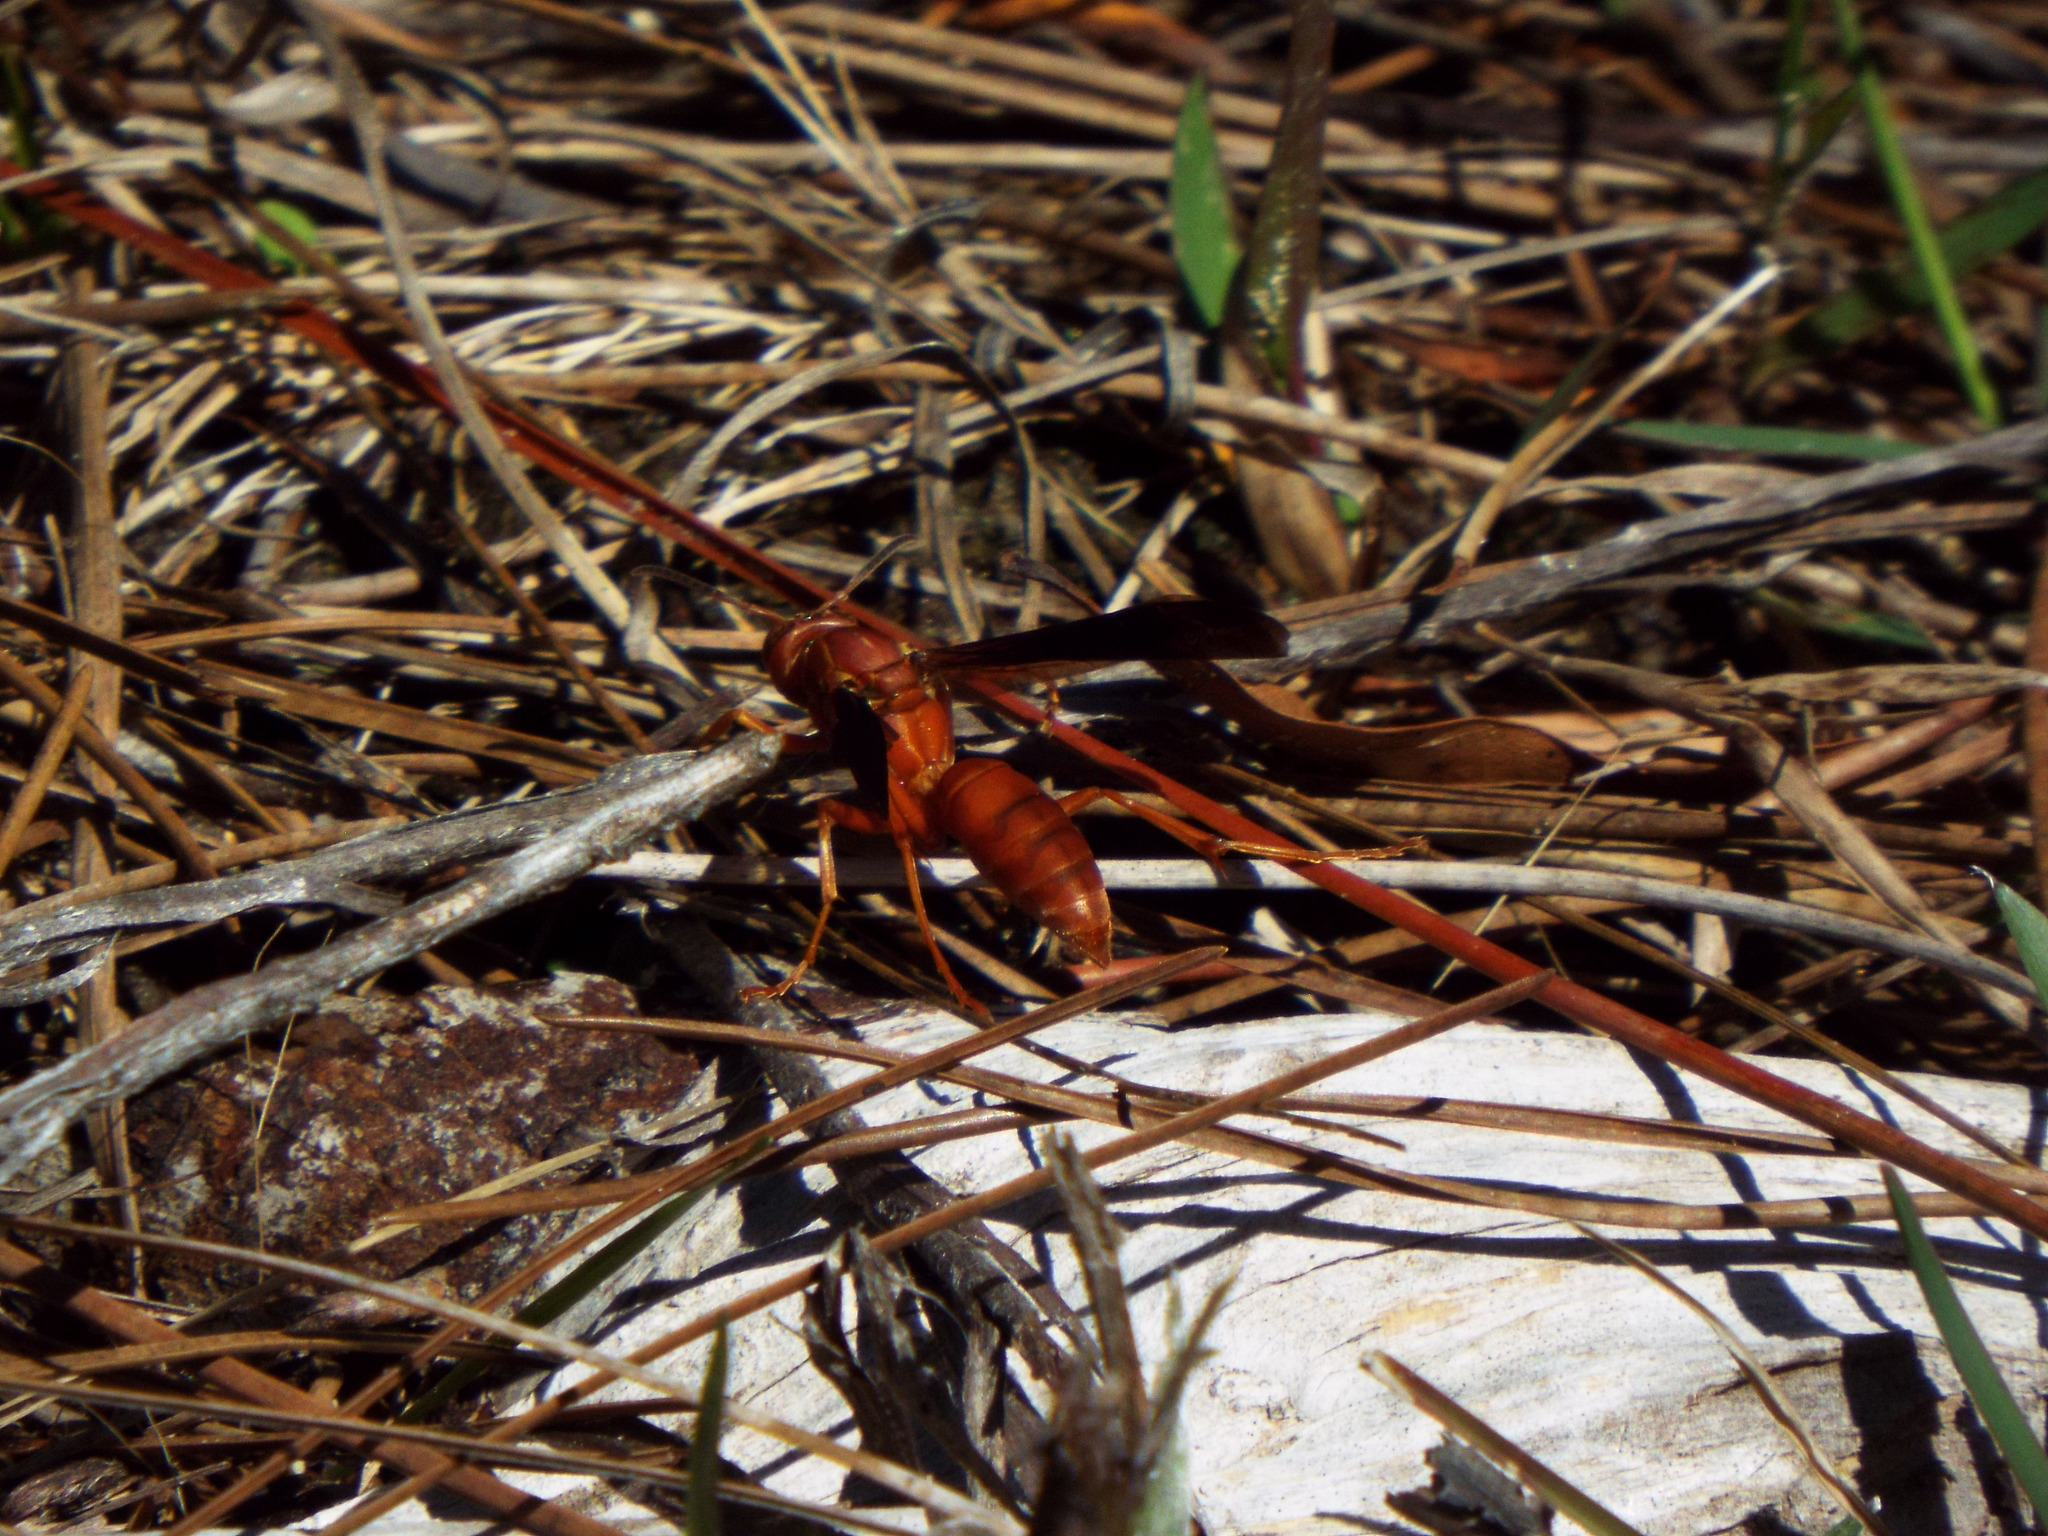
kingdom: Animalia
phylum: Arthropoda
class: Insecta
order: Hymenoptera
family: Vespidae
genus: Fuscopolistes
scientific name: Fuscopolistes
